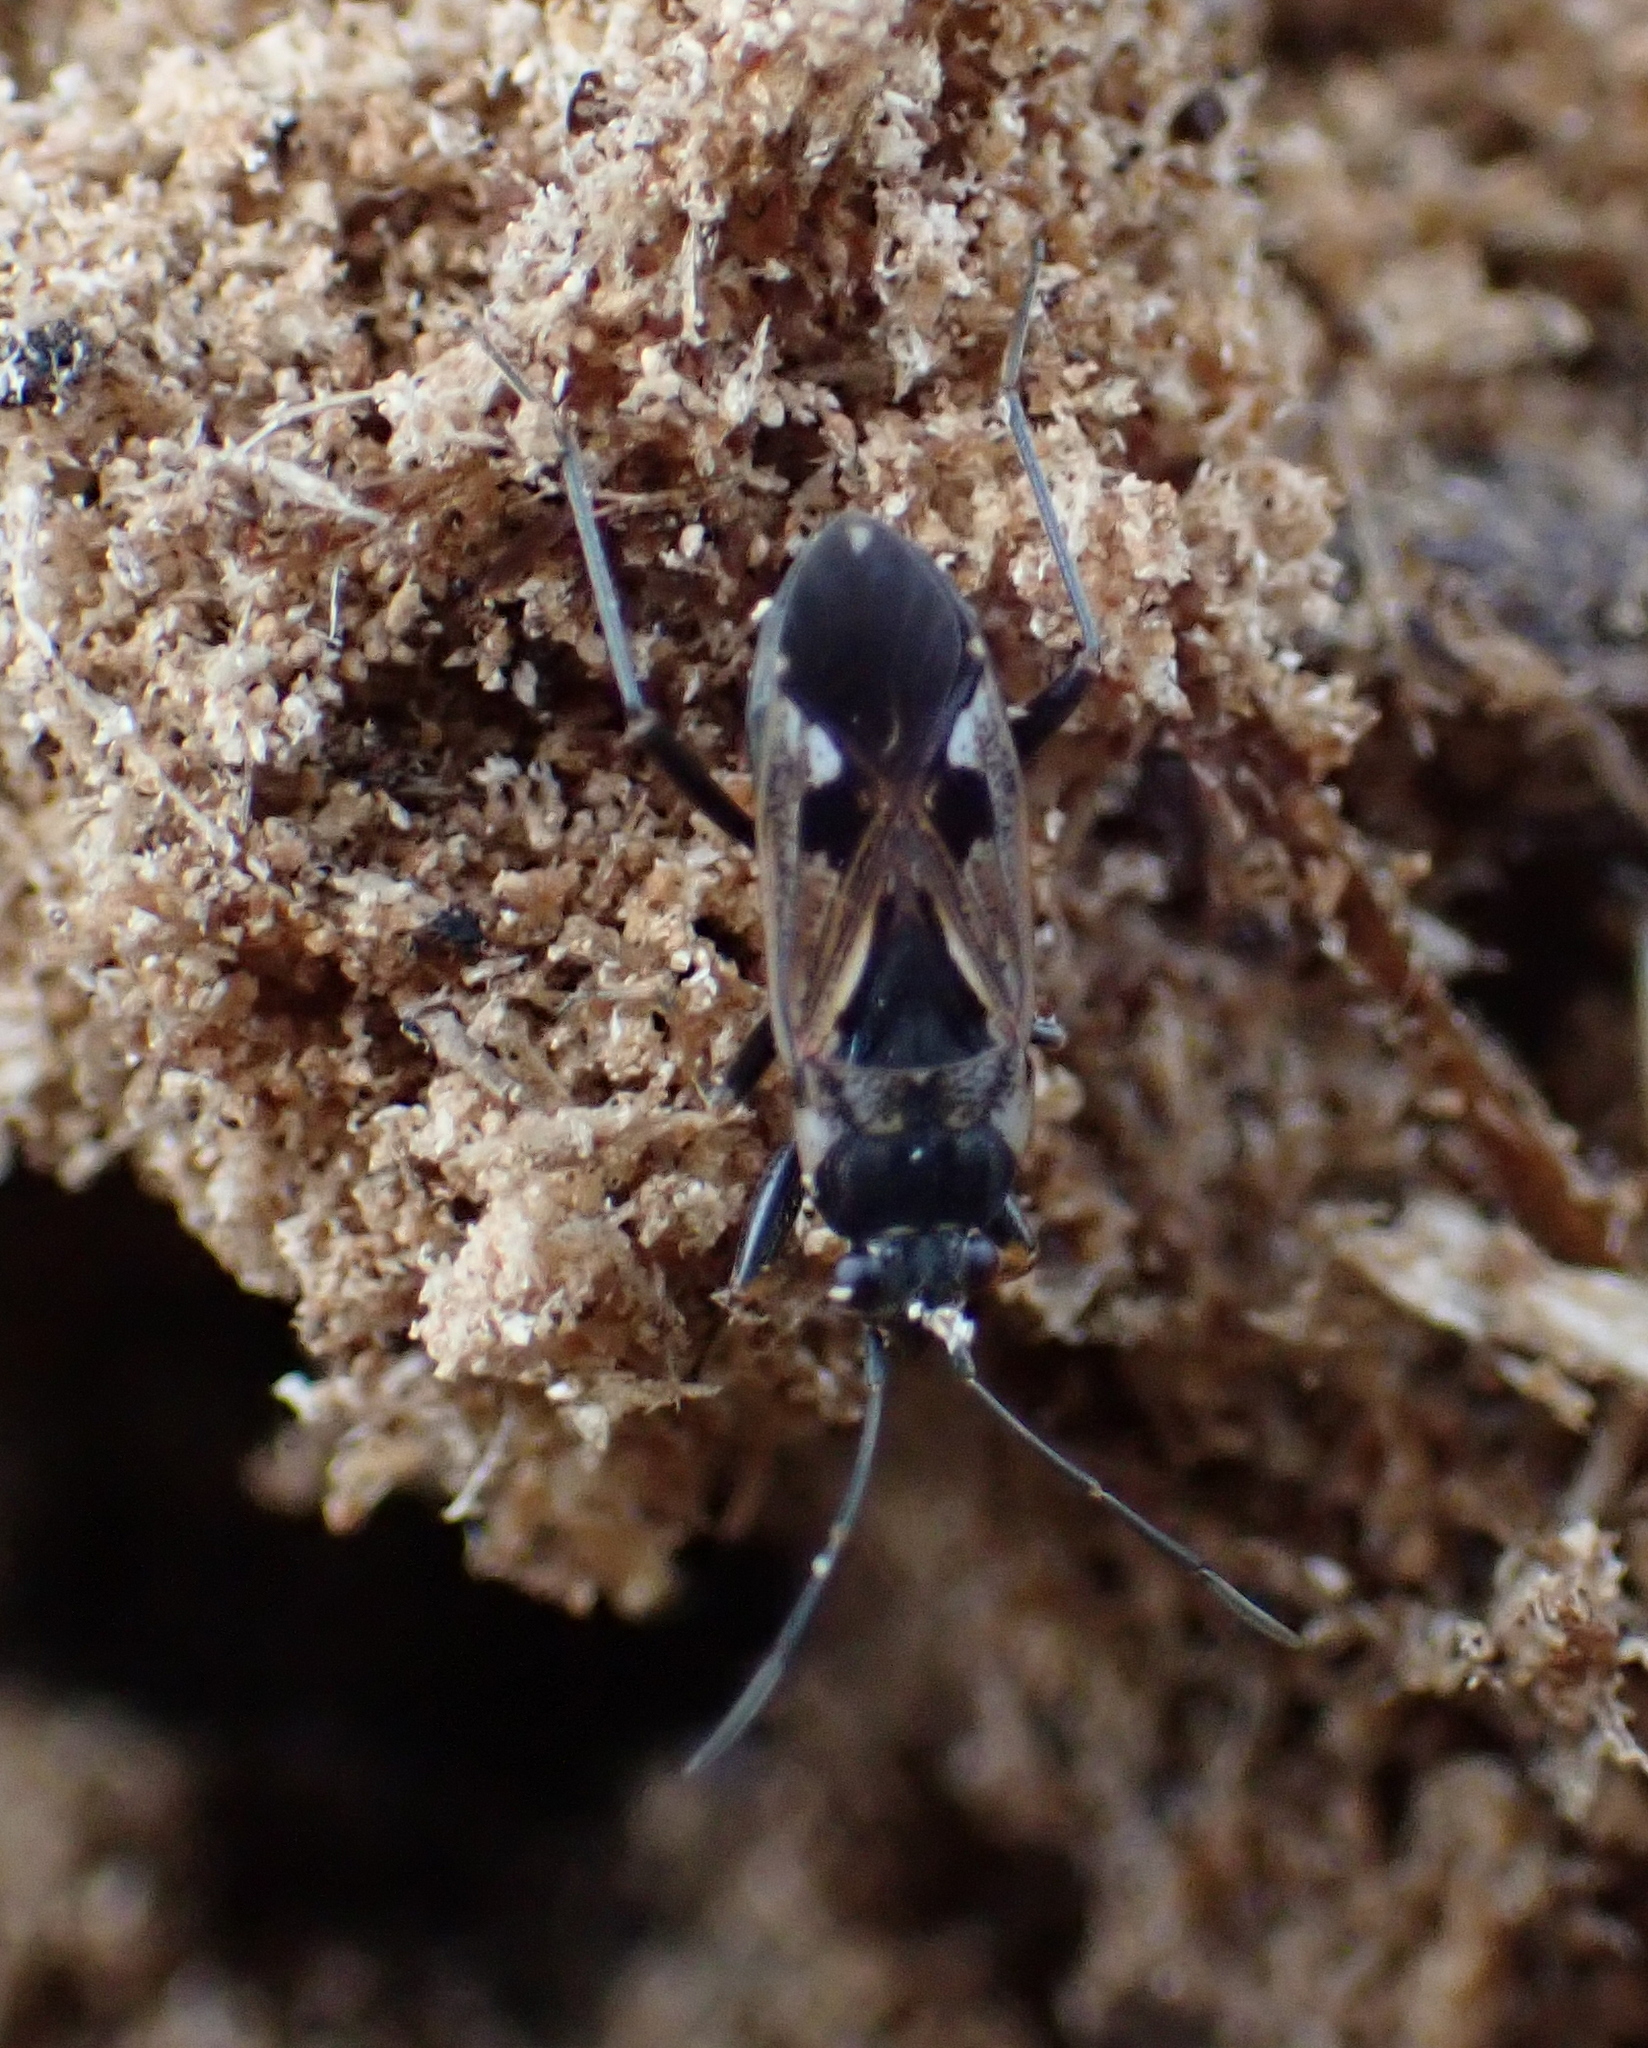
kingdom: Animalia
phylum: Arthropoda
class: Insecta
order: Hemiptera
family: Rhyparochromidae
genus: Rhyparochromus
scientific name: Rhyparochromus vulgaris
